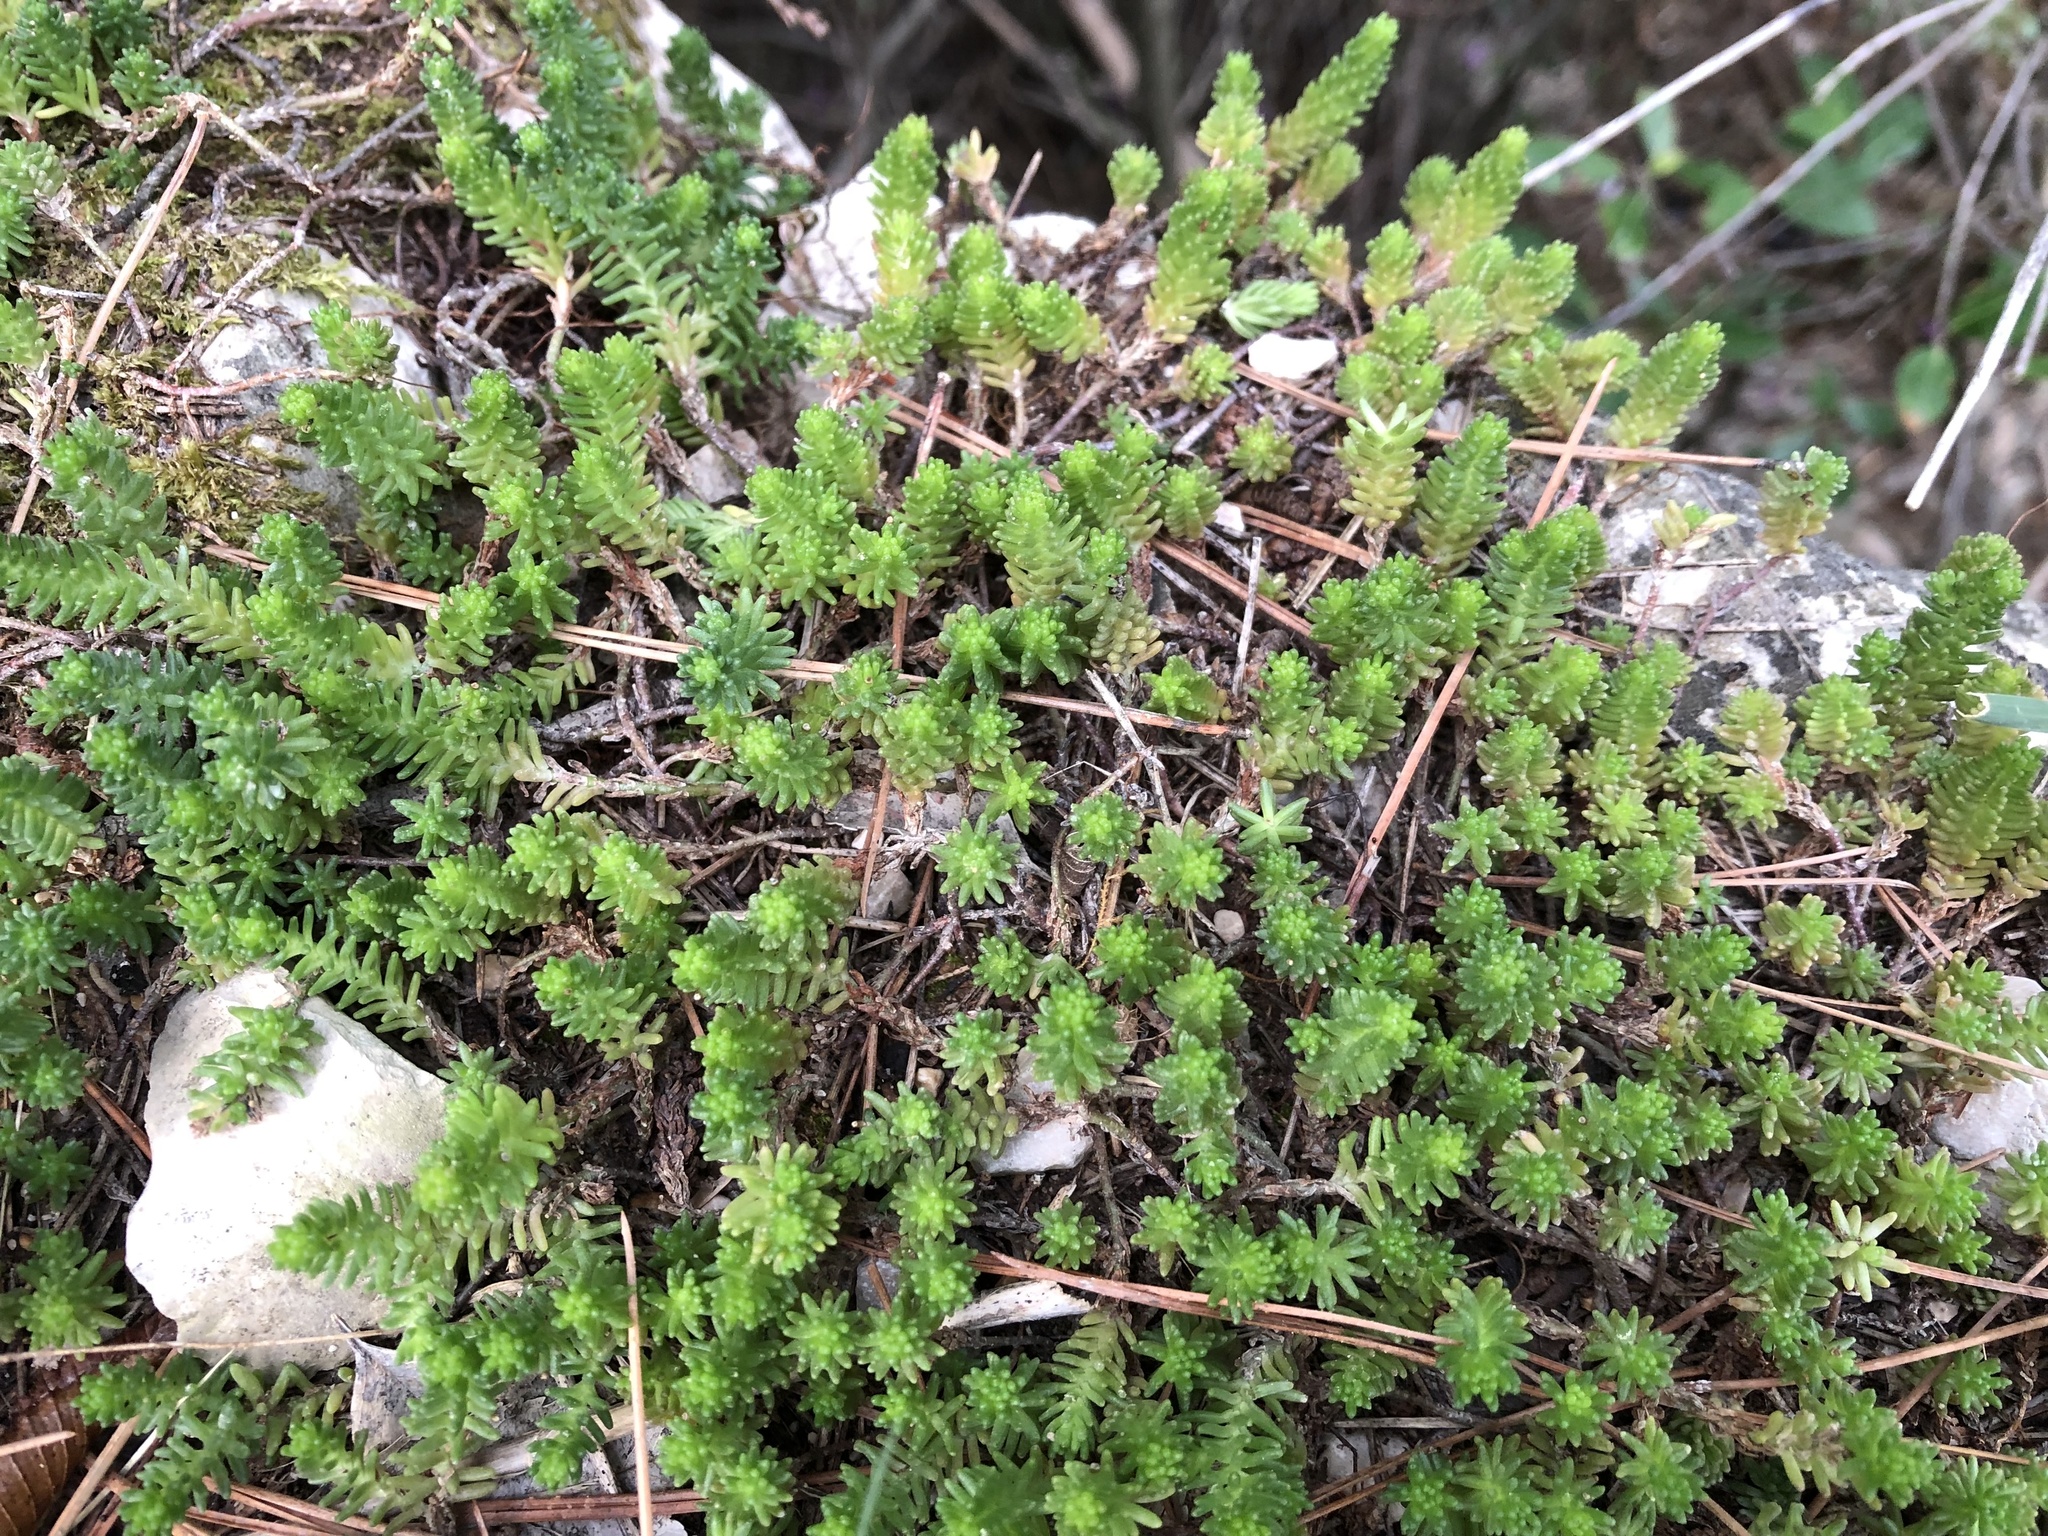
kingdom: Plantae
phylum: Tracheophyta
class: Magnoliopsida
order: Saxifragales
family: Crassulaceae
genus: Sedum
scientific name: Sedum sexangulare
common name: Tasteless stonecrop
